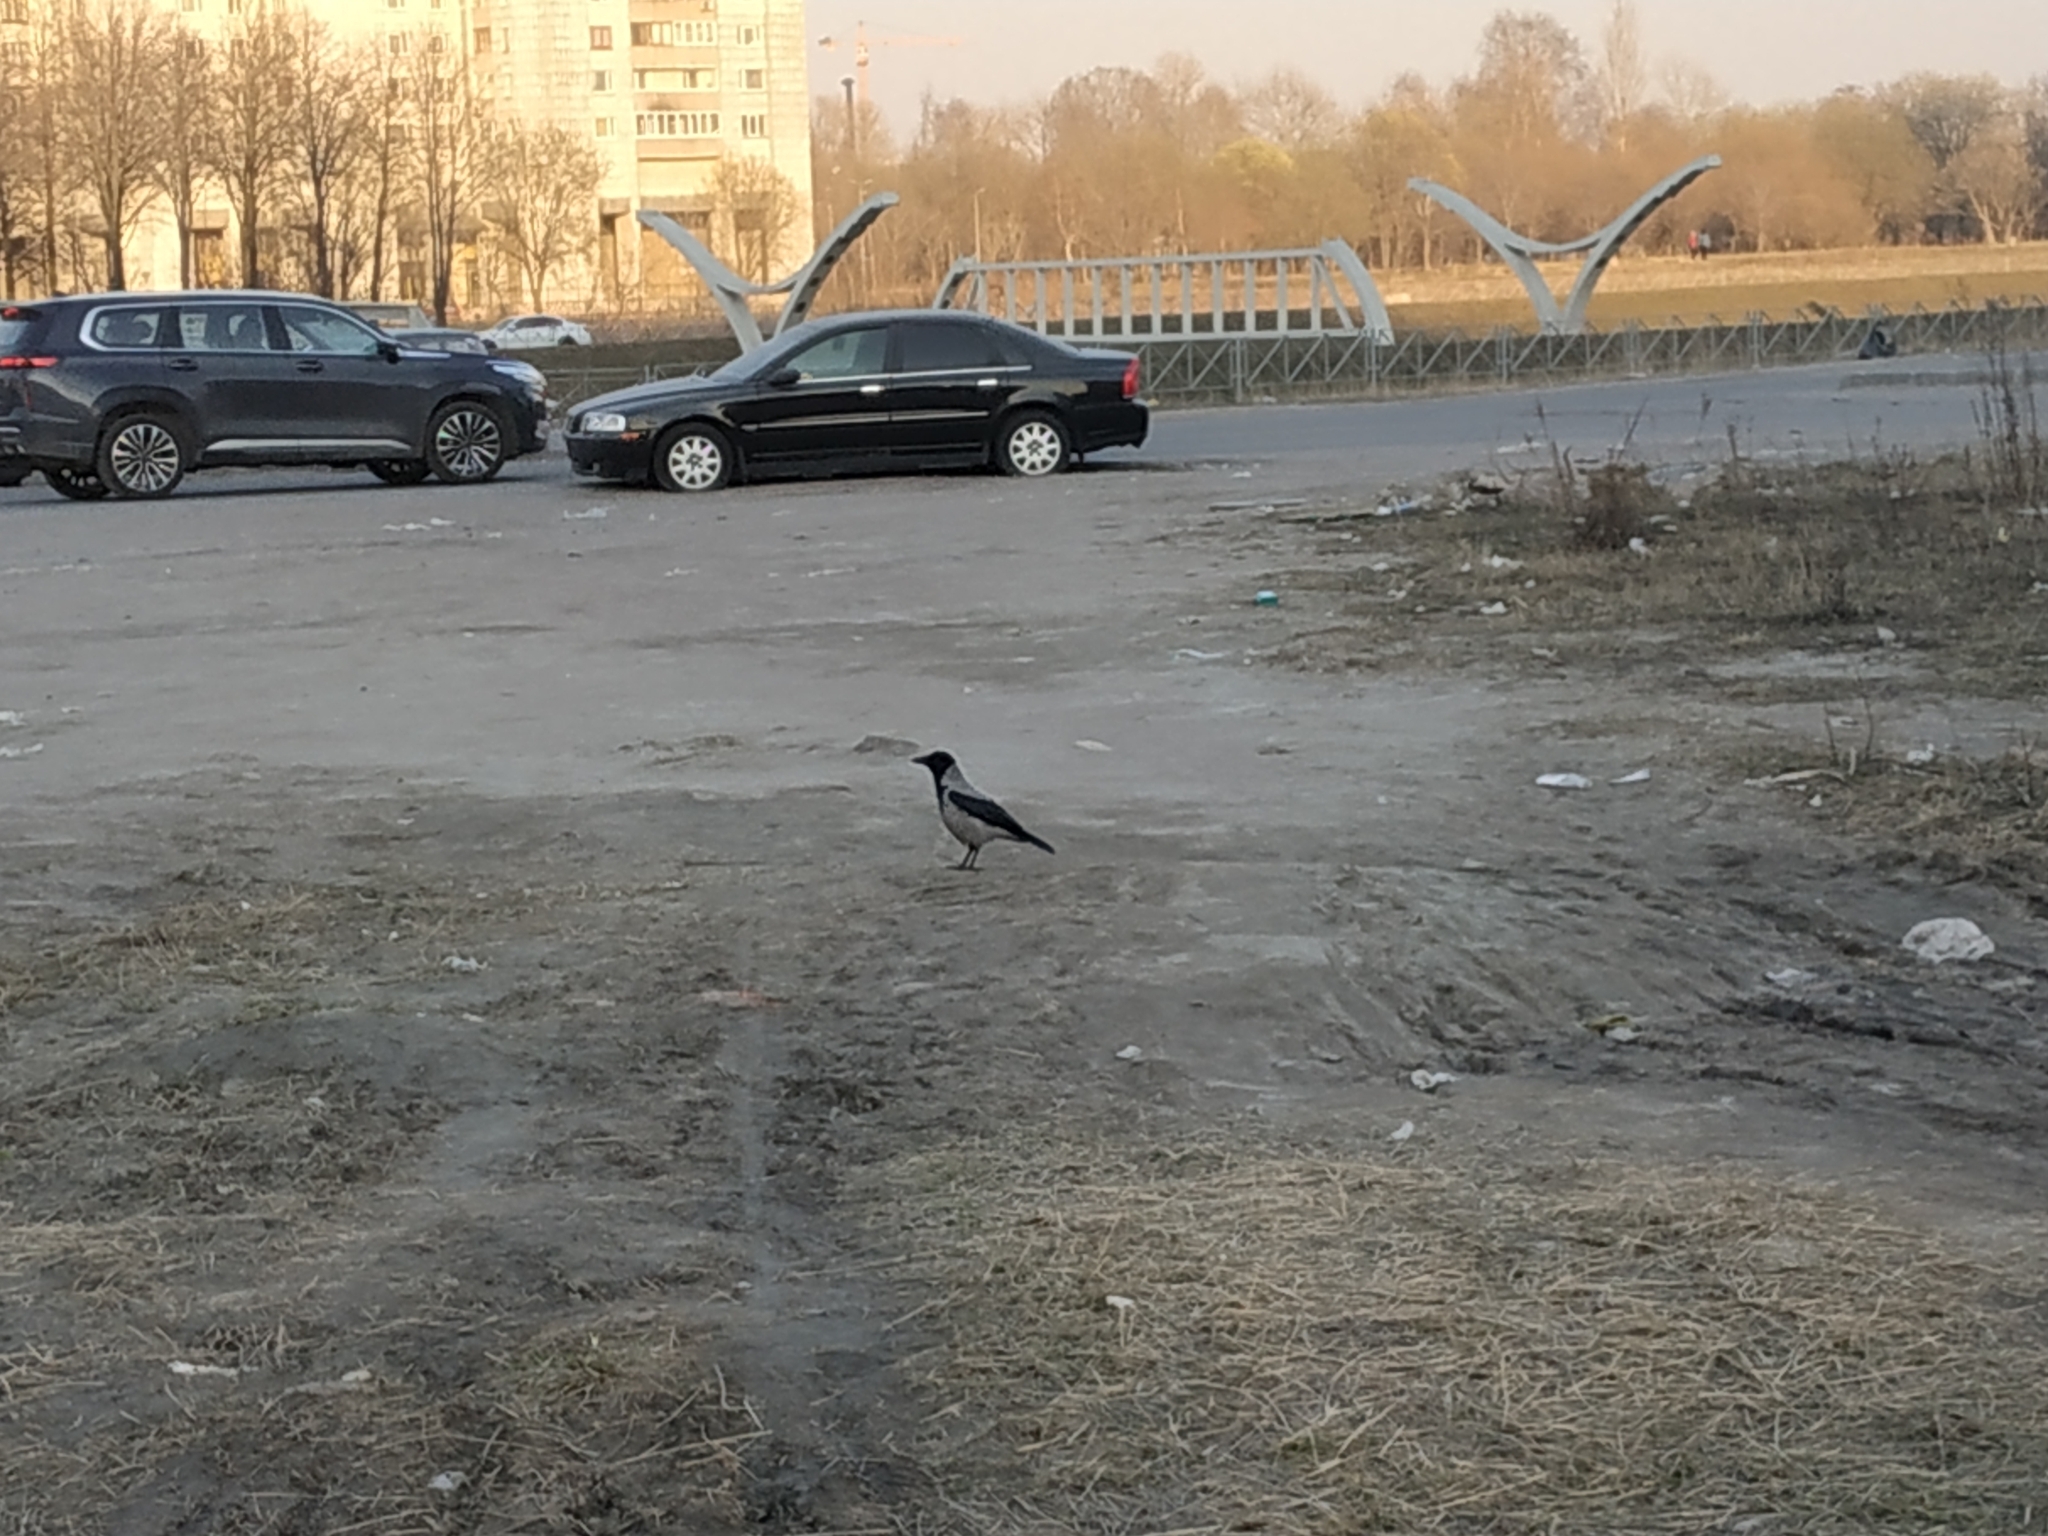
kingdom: Animalia
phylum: Chordata
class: Aves
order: Passeriformes
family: Corvidae
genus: Corvus
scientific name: Corvus cornix
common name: Hooded crow
